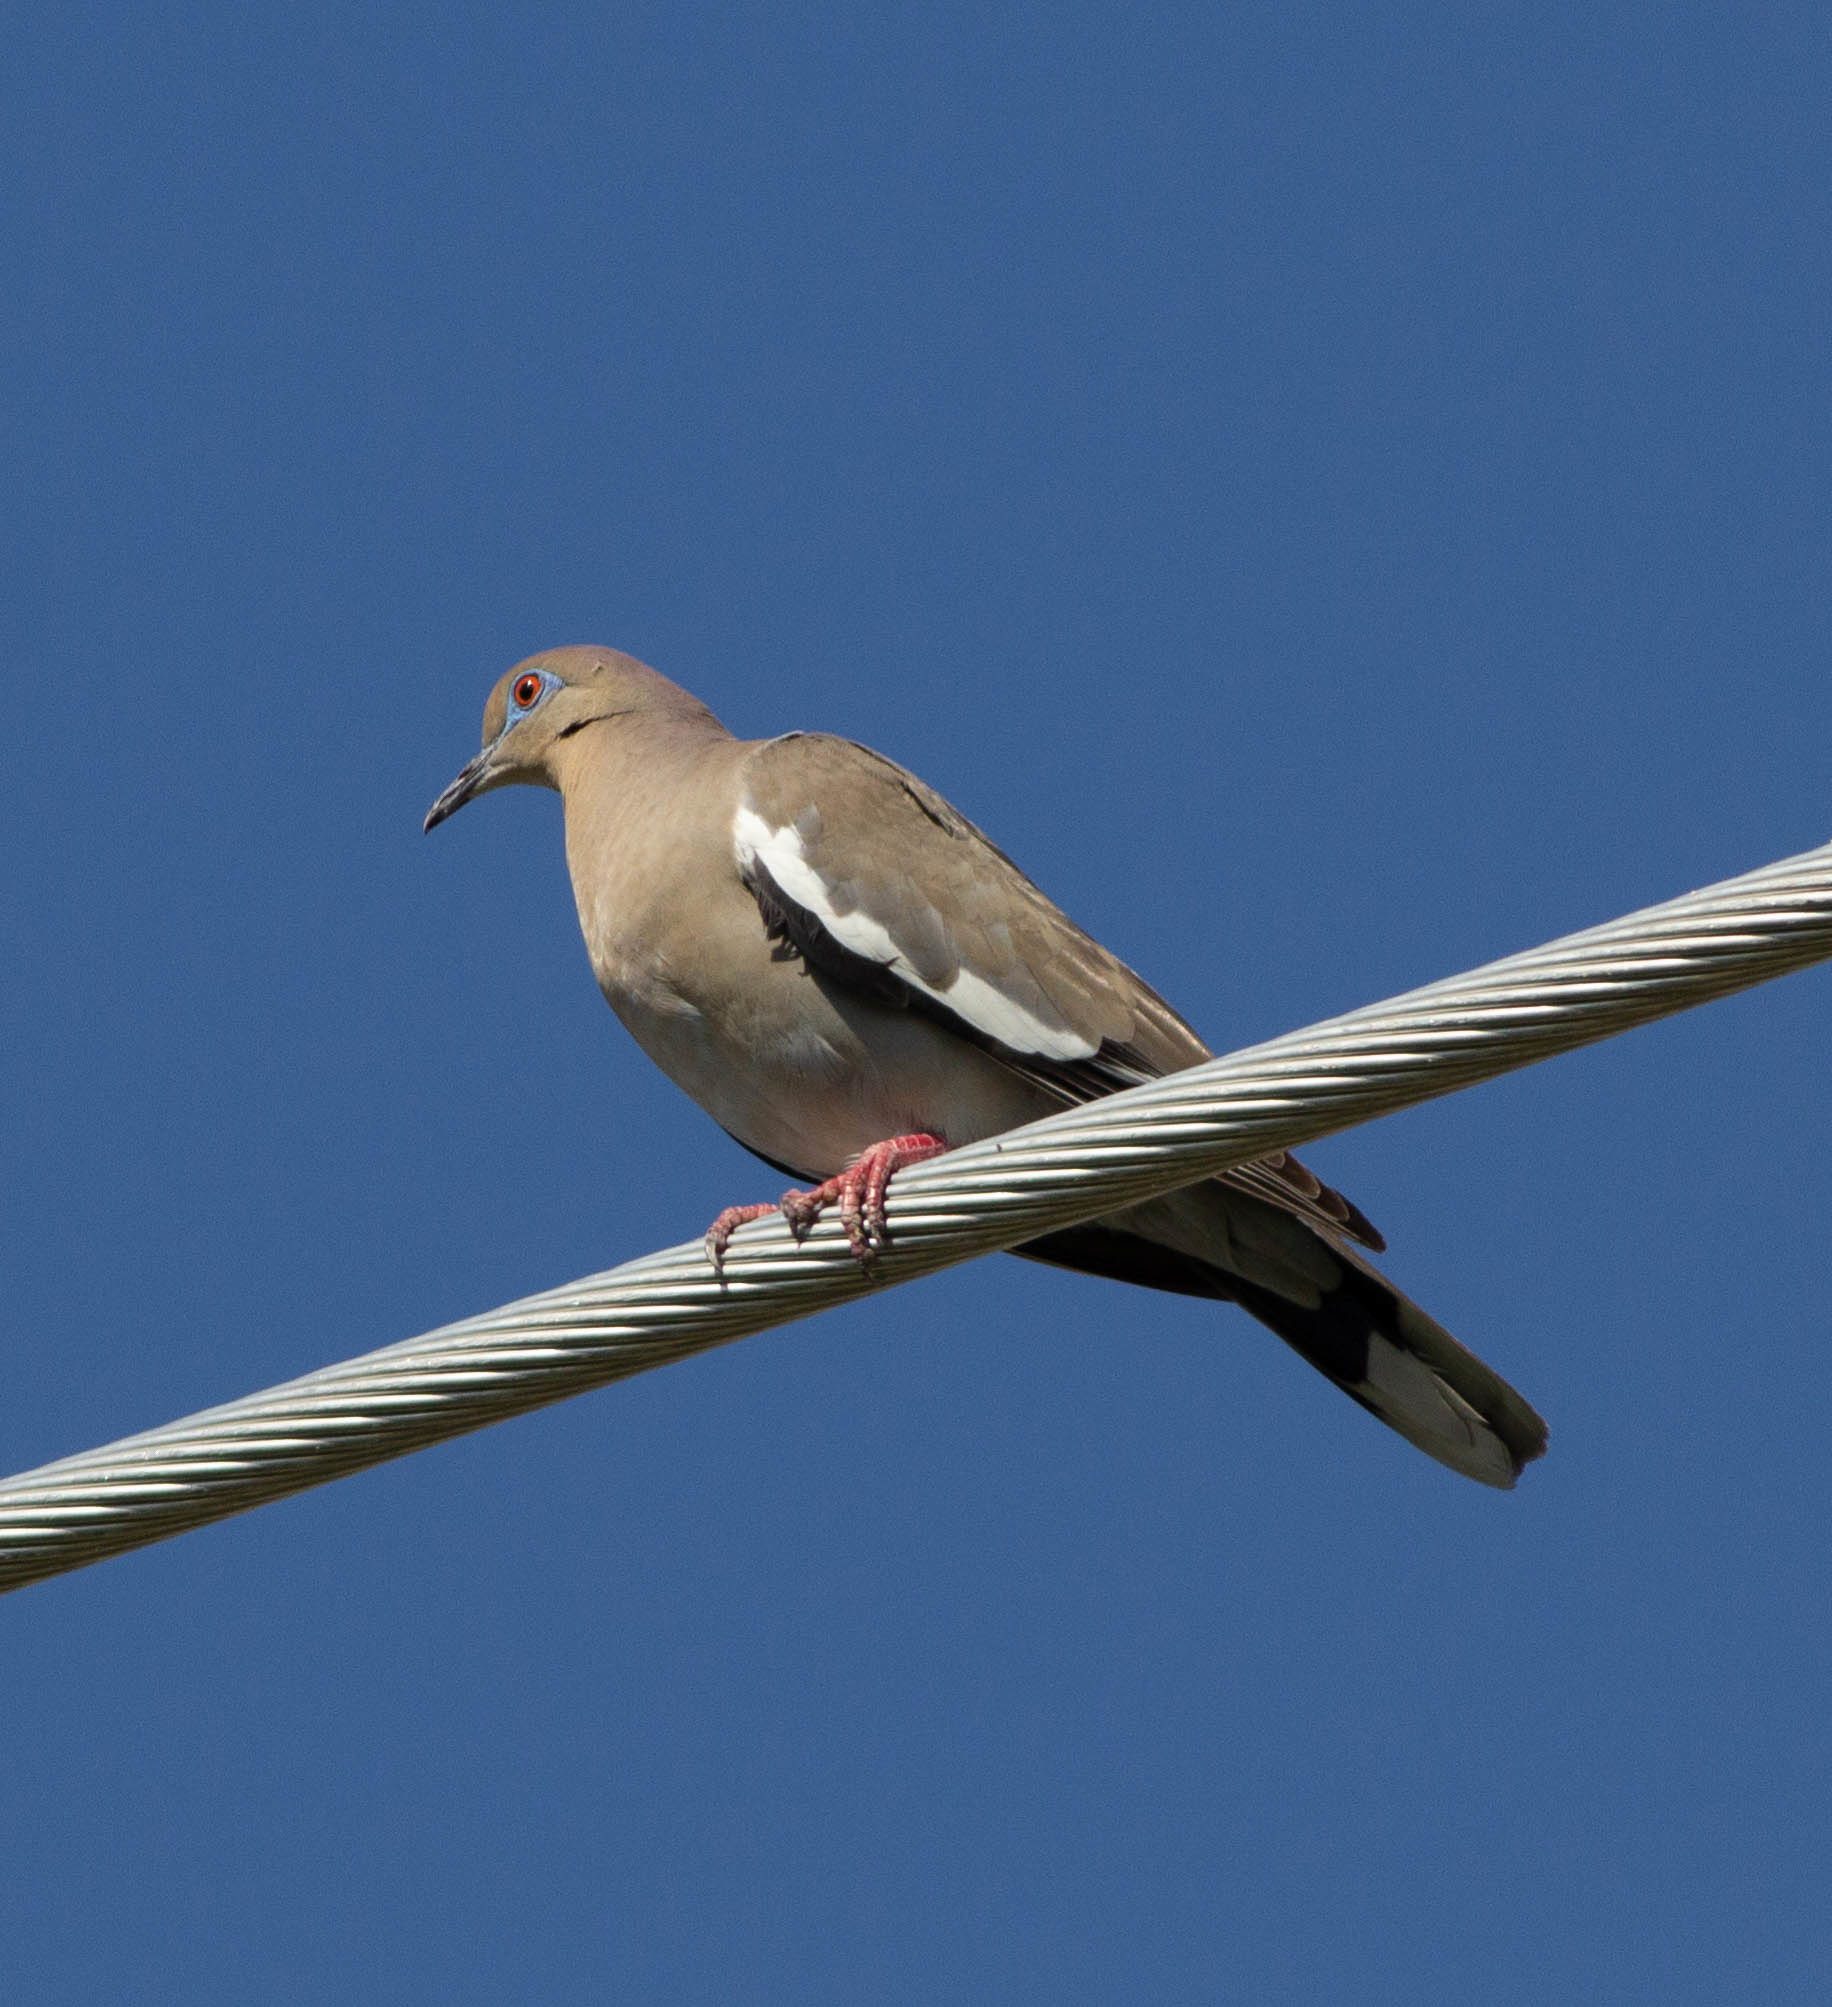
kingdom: Animalia
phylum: Chordata
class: Aves
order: Columbiformes
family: Columbidae
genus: Zenaida
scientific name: Zenaida asiatica
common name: White-winged dove
